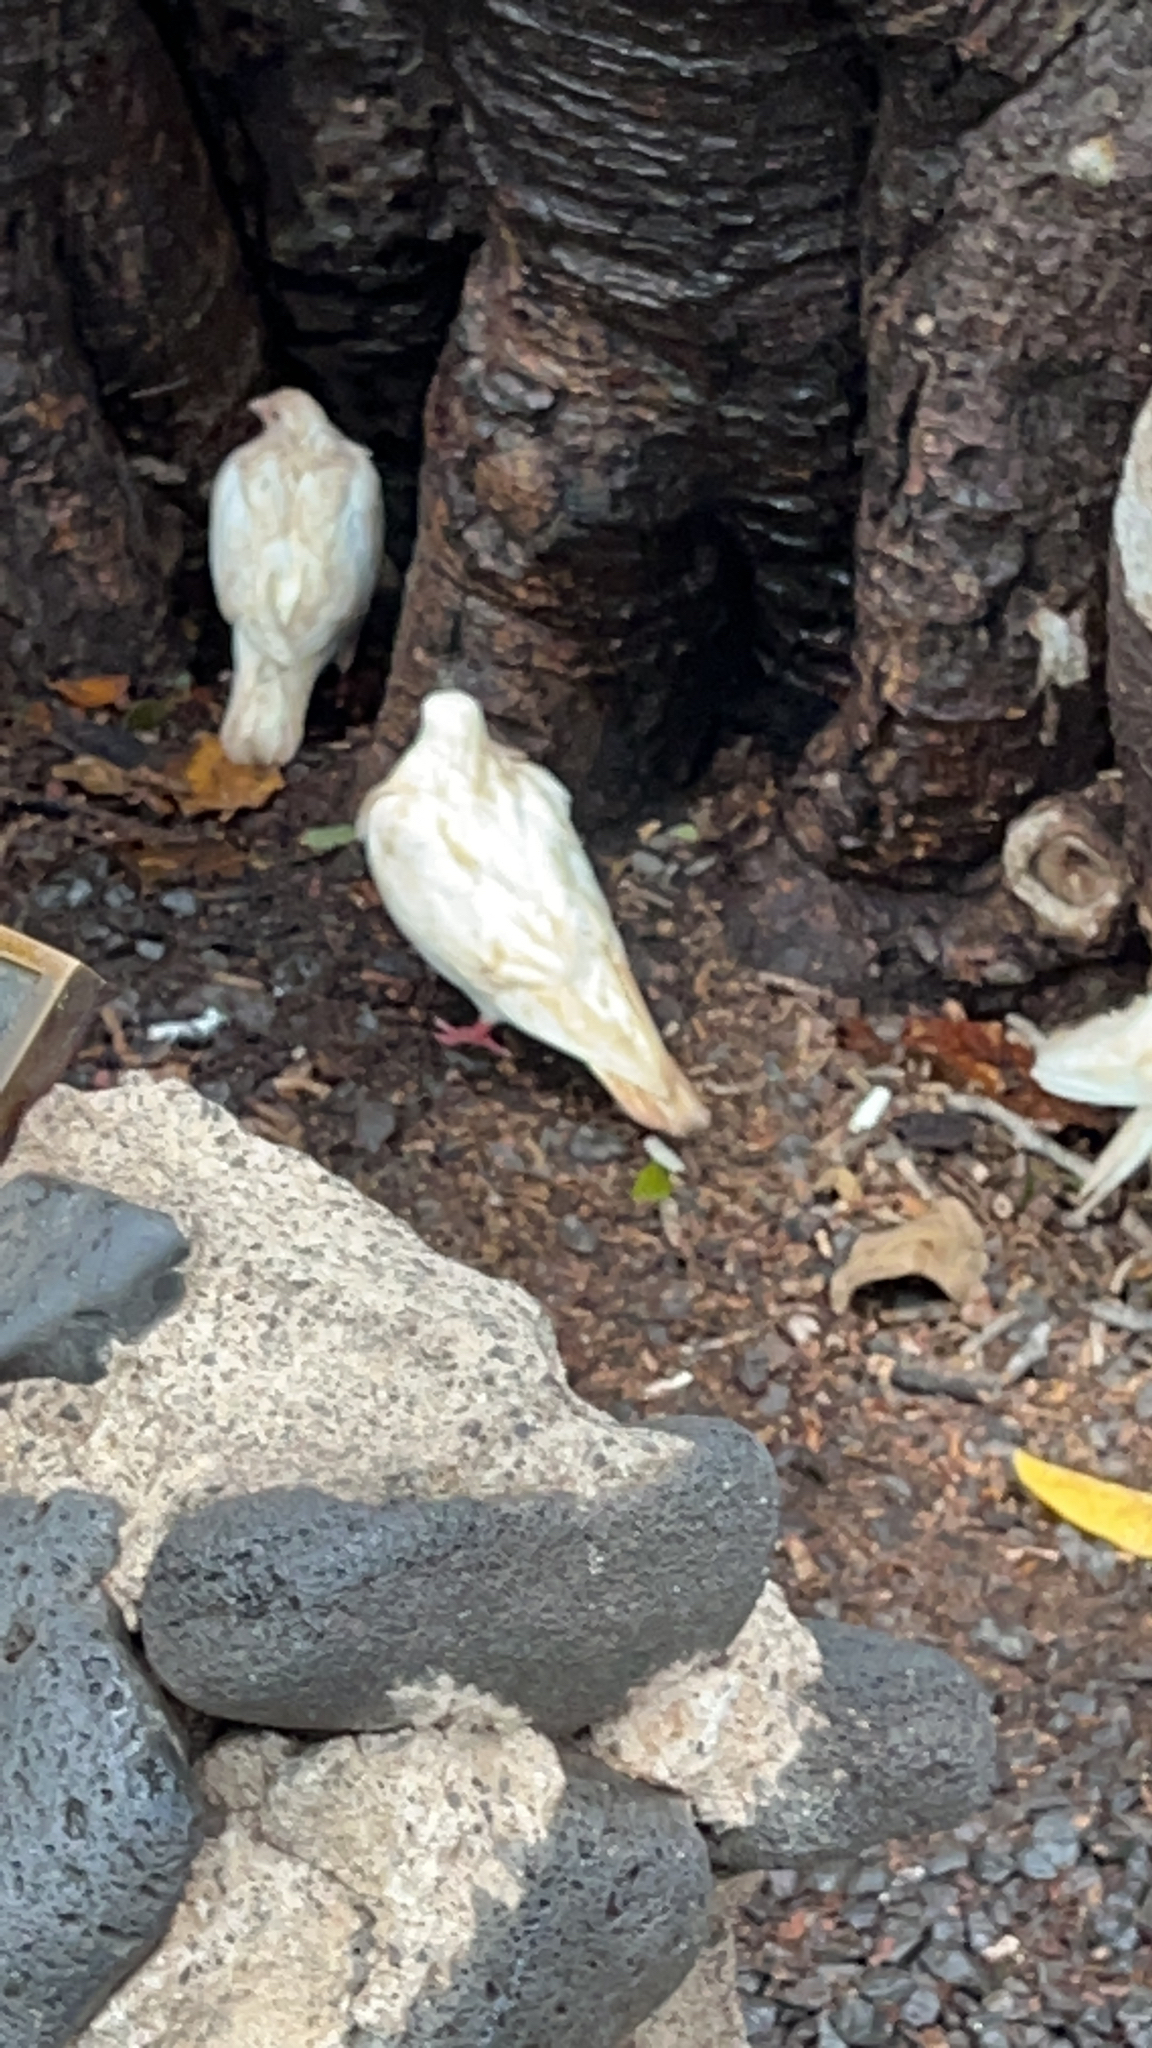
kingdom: Animalia
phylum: Chordata
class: Aves
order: Columbiformes
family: Columbidae
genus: Columba
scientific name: Columba livia
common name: Rock pigeon
